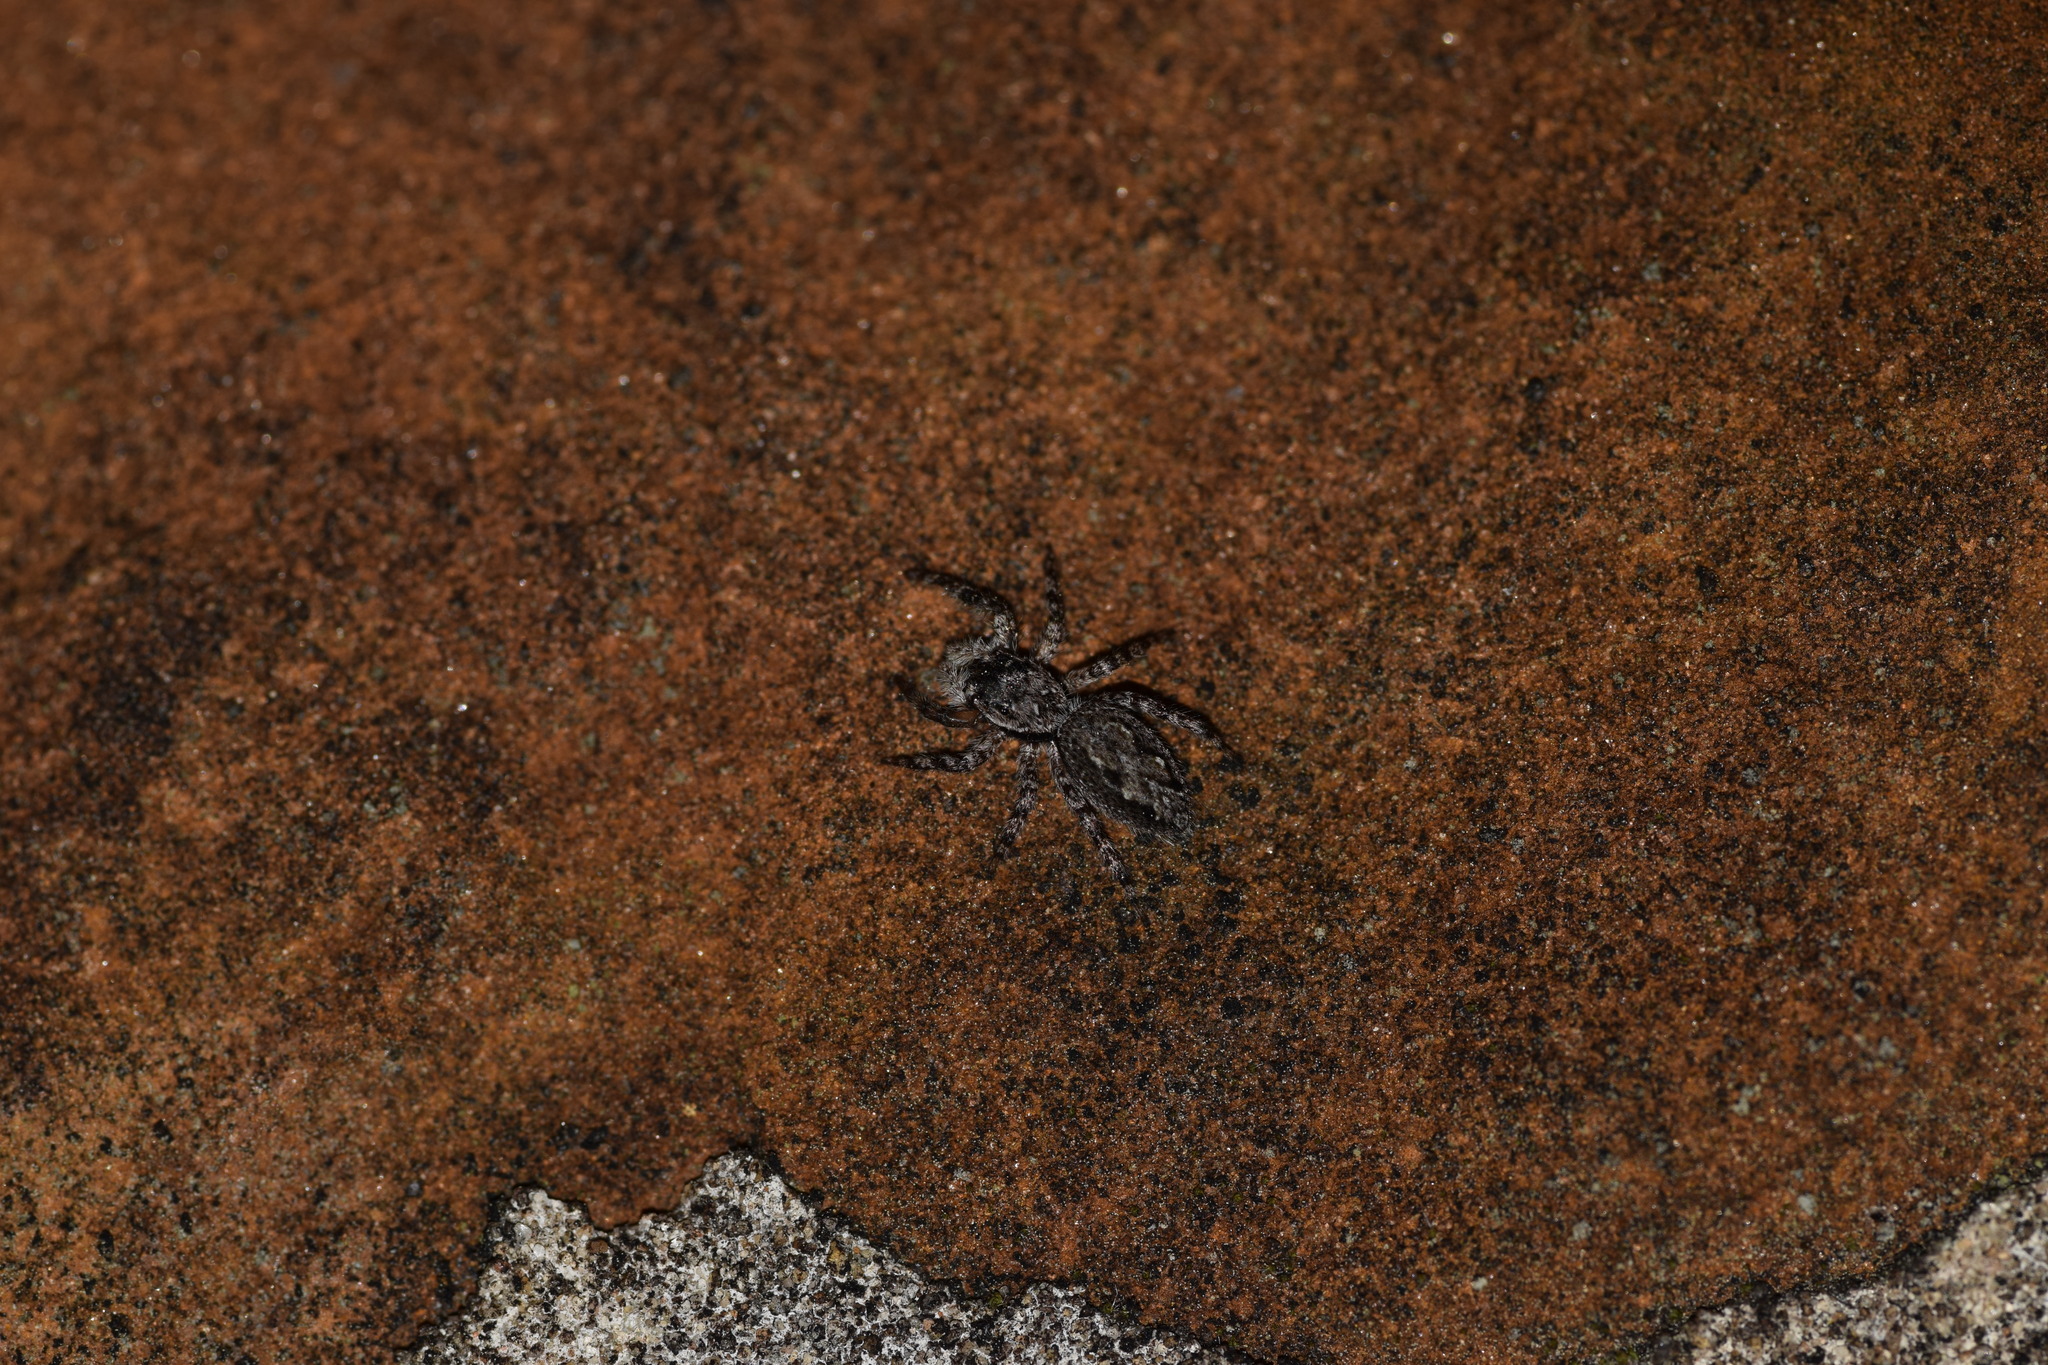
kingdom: Animalia
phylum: Arthropoda
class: Arachnida
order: Araneae
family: Salticidae
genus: Platycryptus
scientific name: Platycryptus undatus
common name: Tan jumping spider
